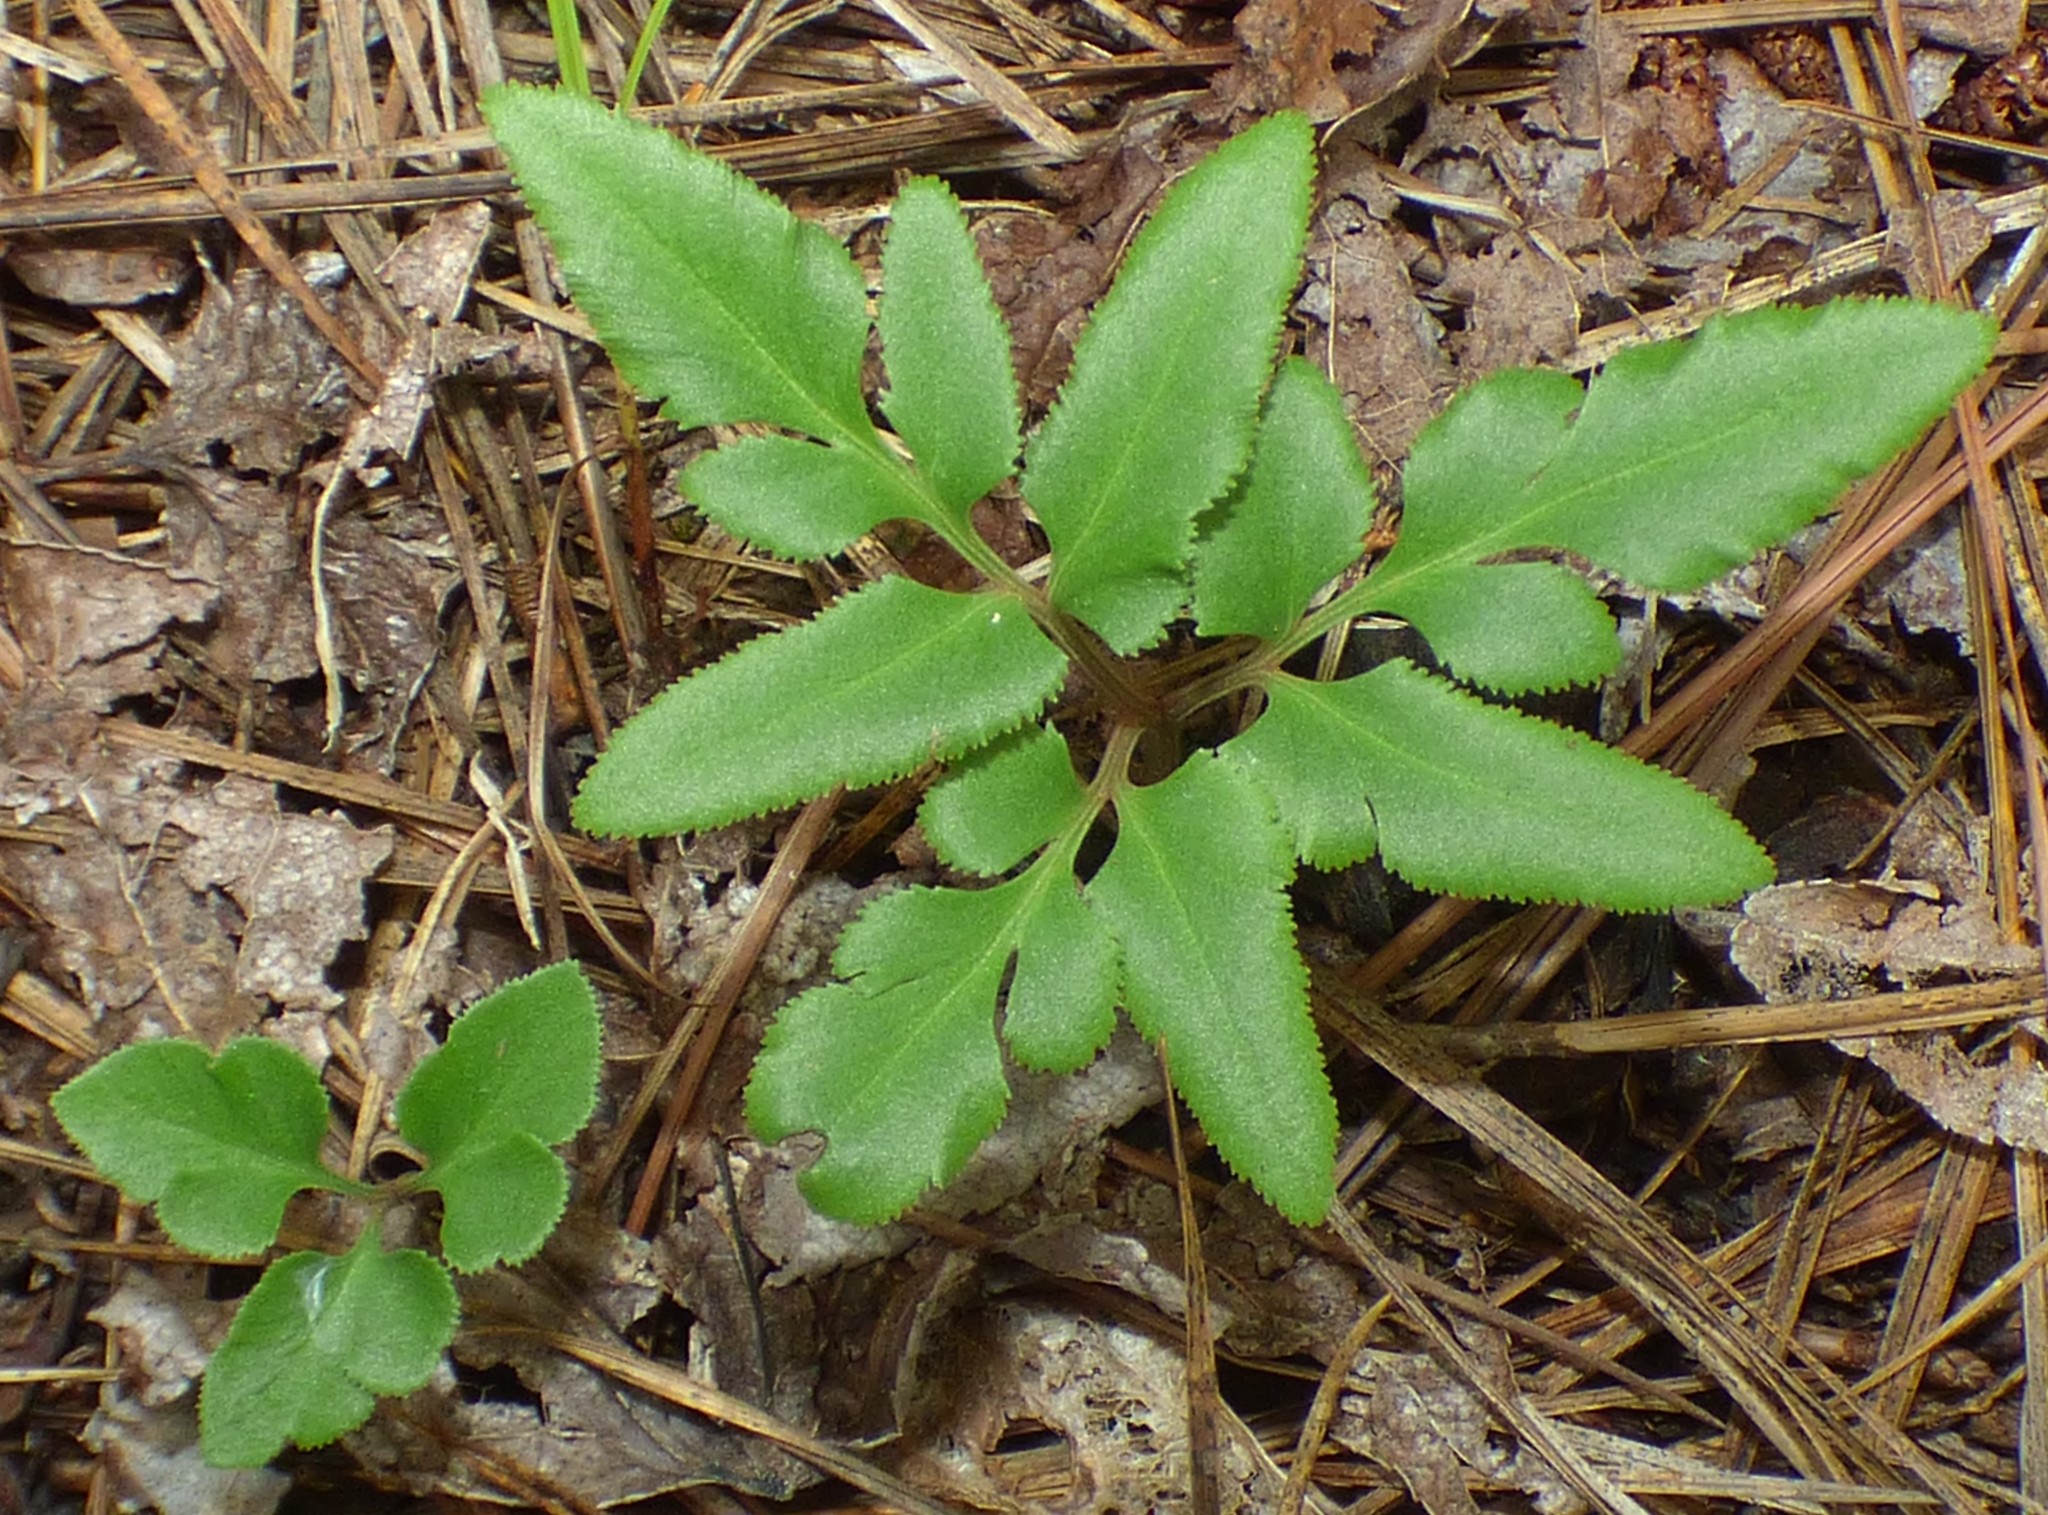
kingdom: Plantae
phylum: Tracheophyta
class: Polypodiopsida
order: Ophioglossales
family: Ophioglossaceae
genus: Sceptridium
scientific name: Sceptridium biternatum
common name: Sparse-lobed grapefern
